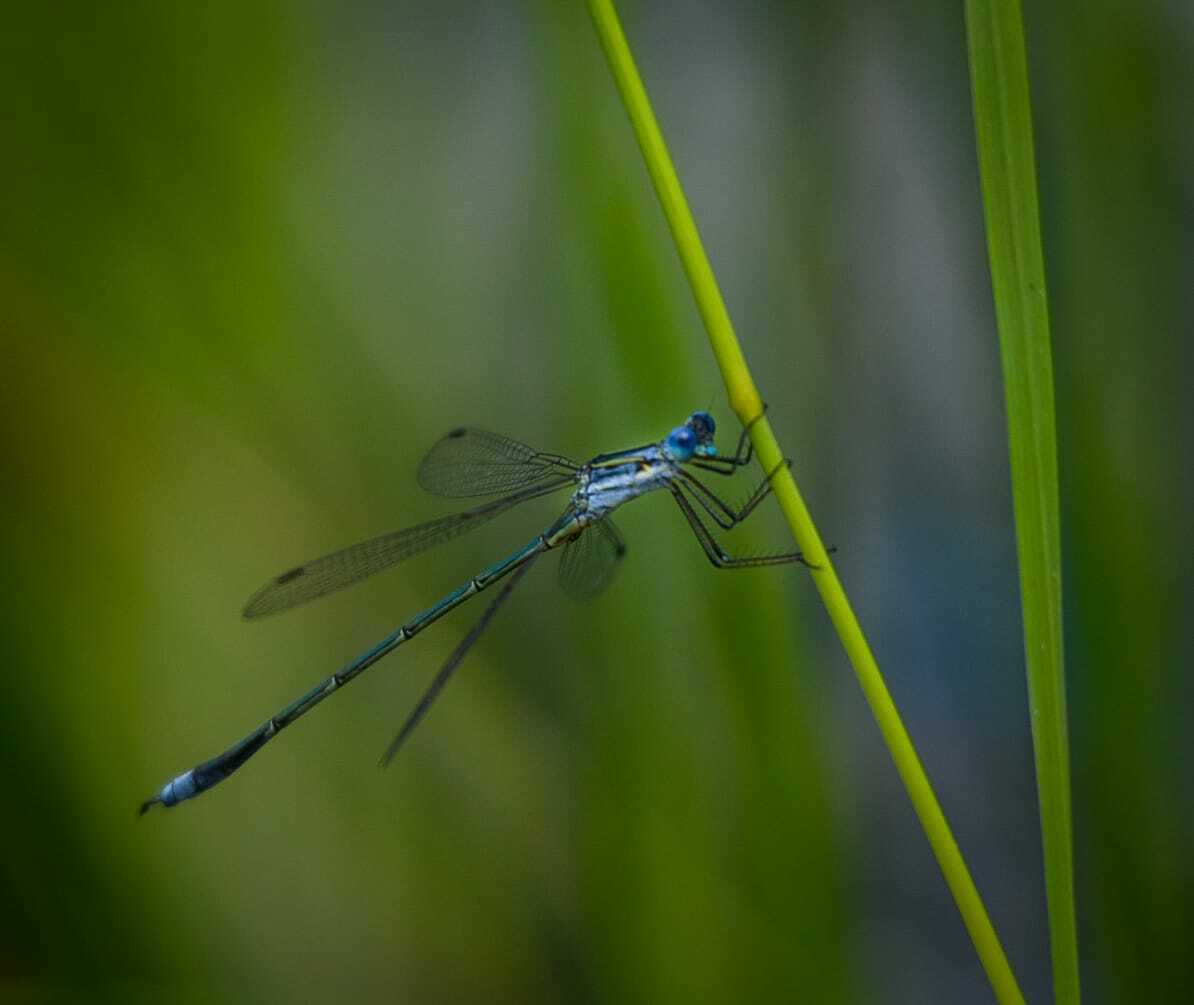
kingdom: Animalia
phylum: Arthropoda
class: Insecta
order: Odonata
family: Lestidae
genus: Lestes
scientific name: Lestes plagiatus
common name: Highland spreadwing
